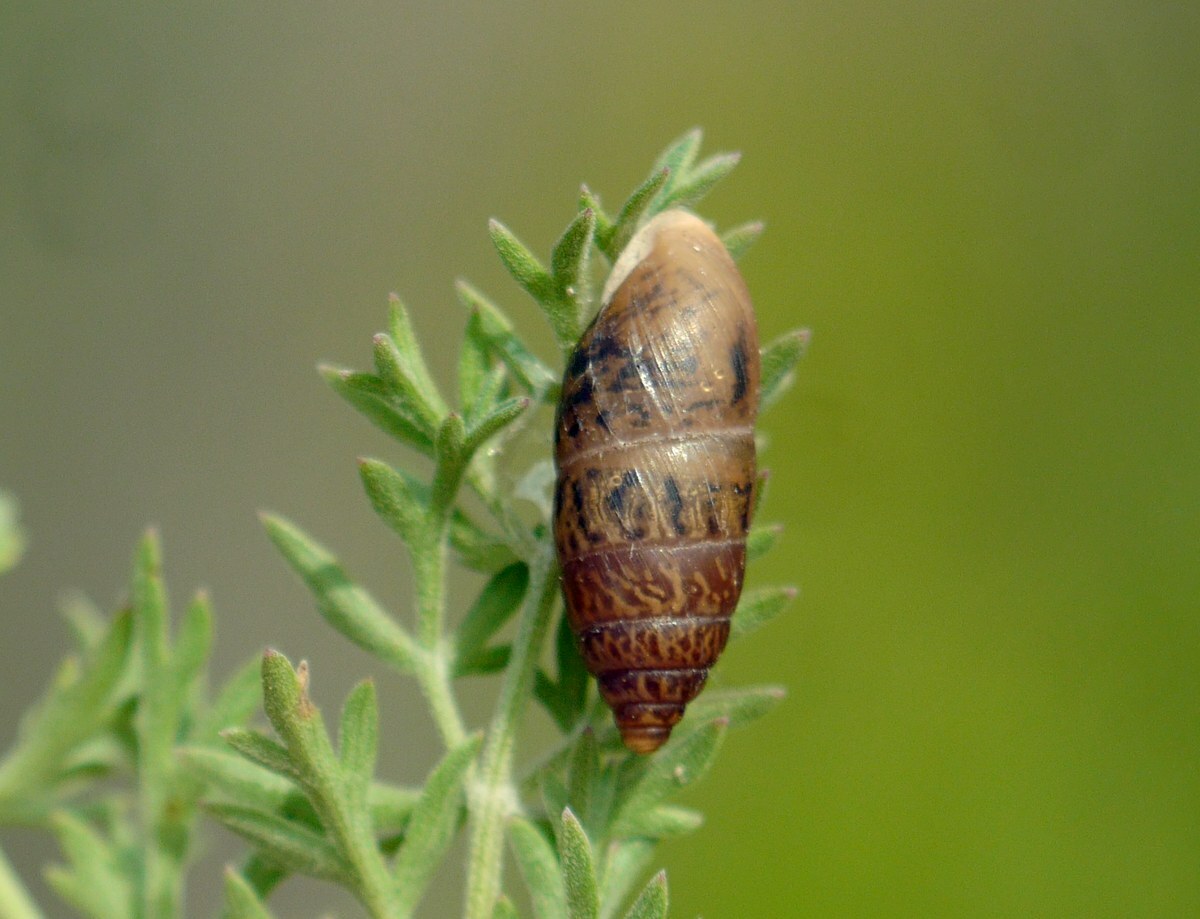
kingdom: Animalia
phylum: Mollusca
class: Gastropoda
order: Stylommatophora
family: Enidae
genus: Chondrula
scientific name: Chondrula tridens
